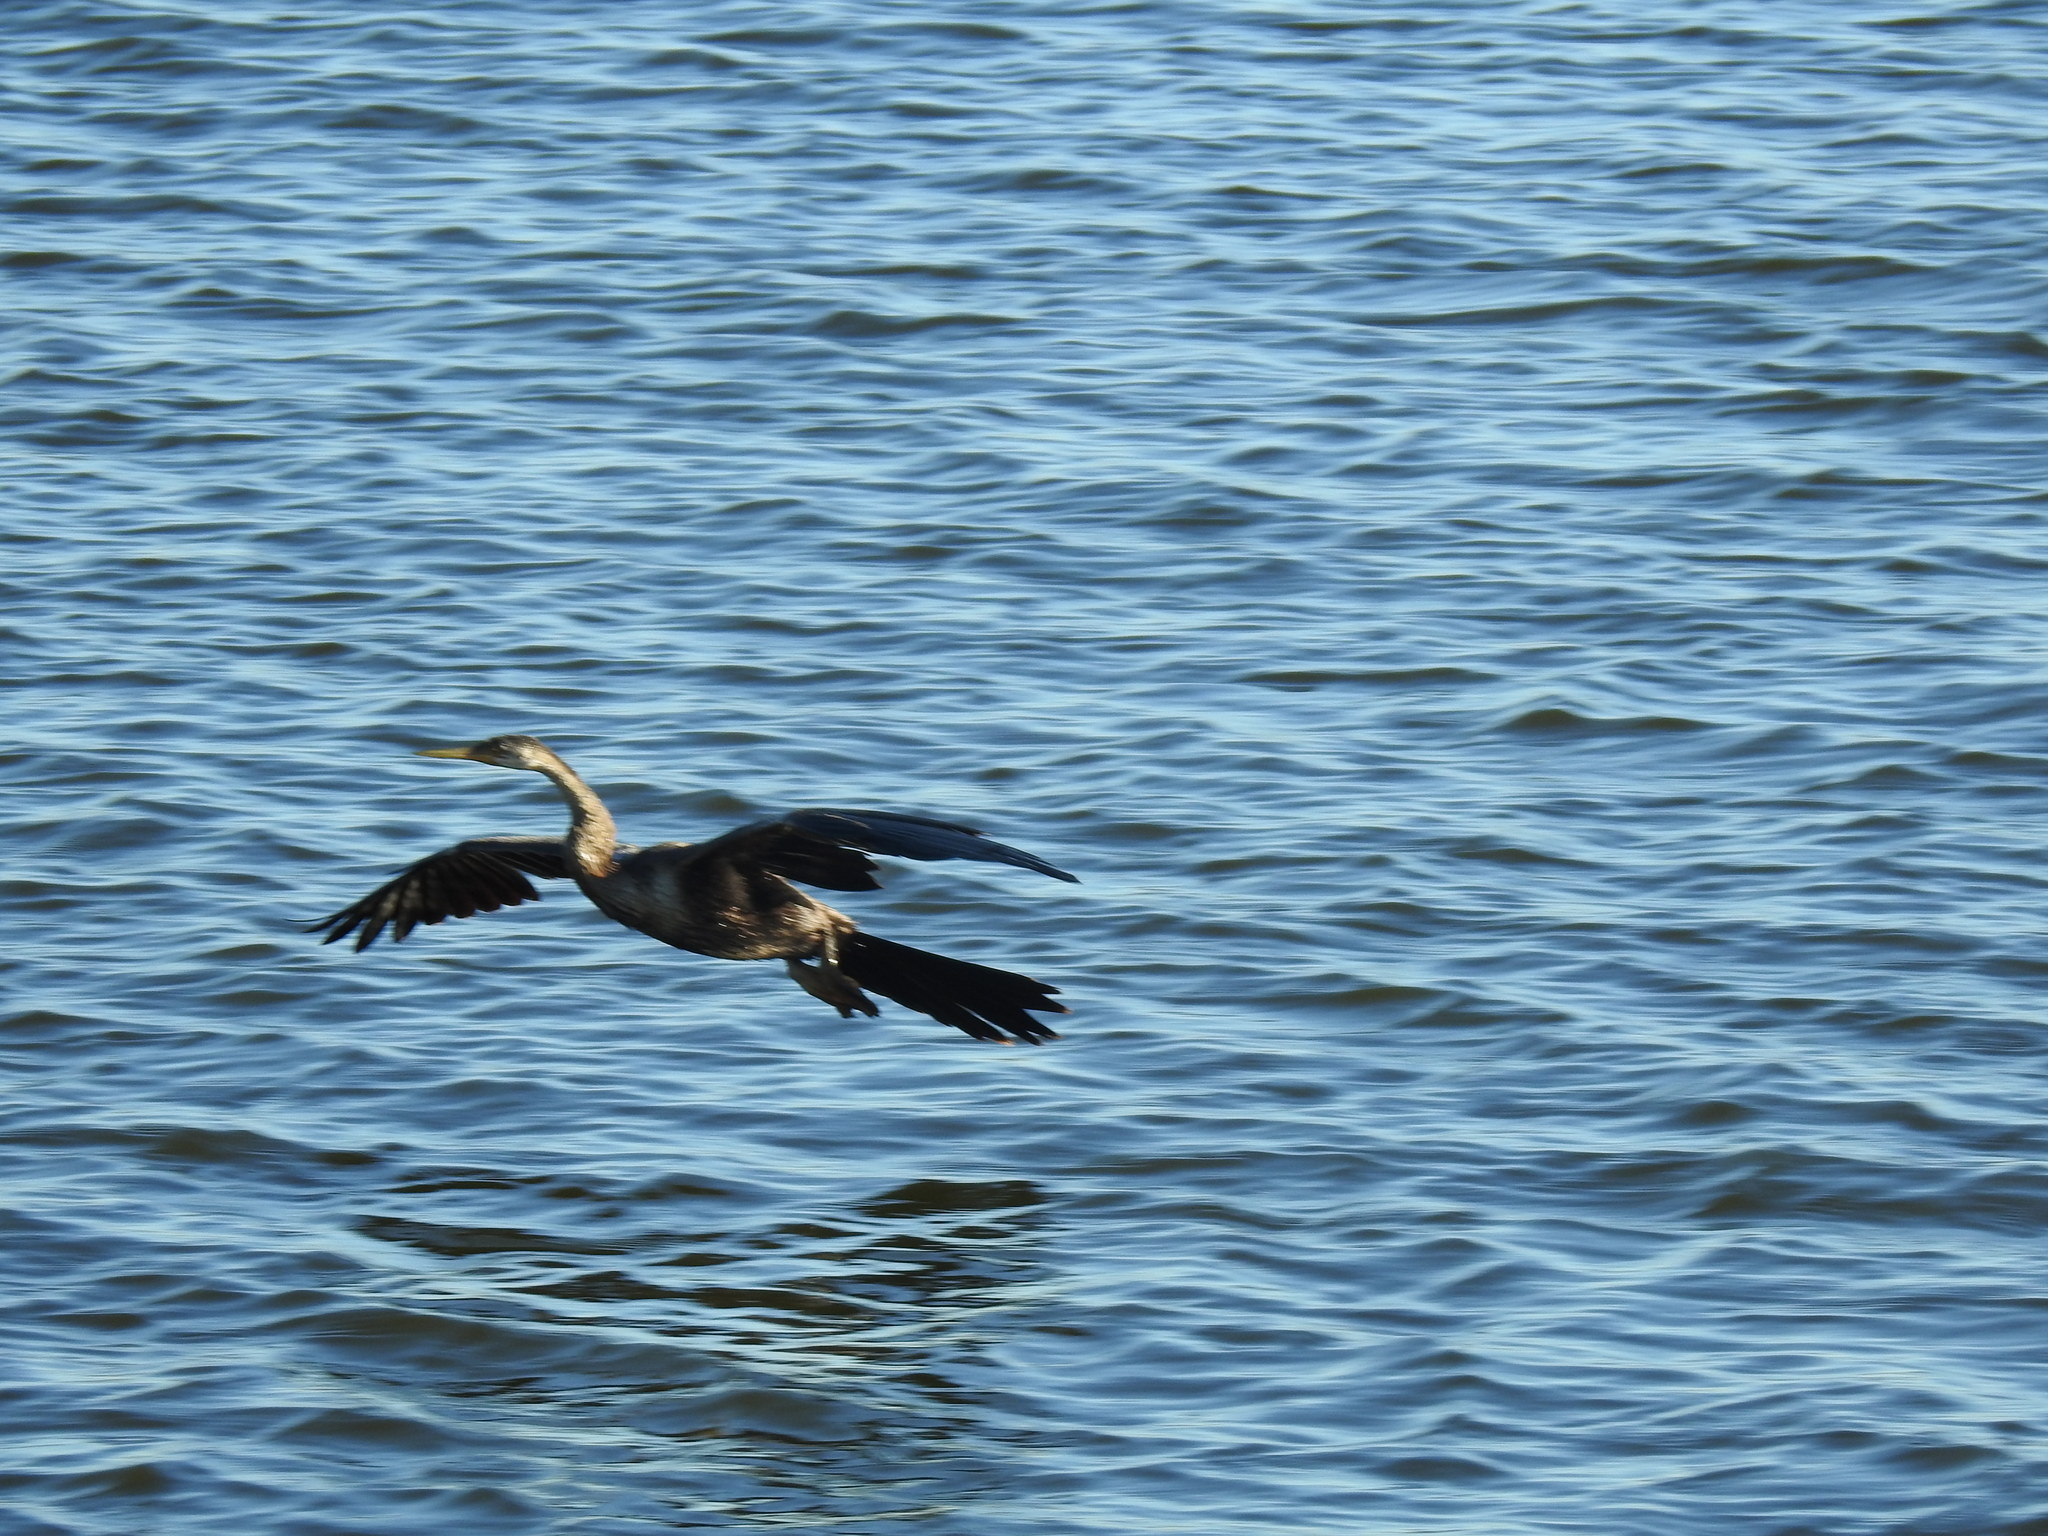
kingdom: Animalia
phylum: Chordata
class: Aves
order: Suliformes
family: Anhingidae
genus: Anhinga
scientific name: Anhinga rufa
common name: African darter
